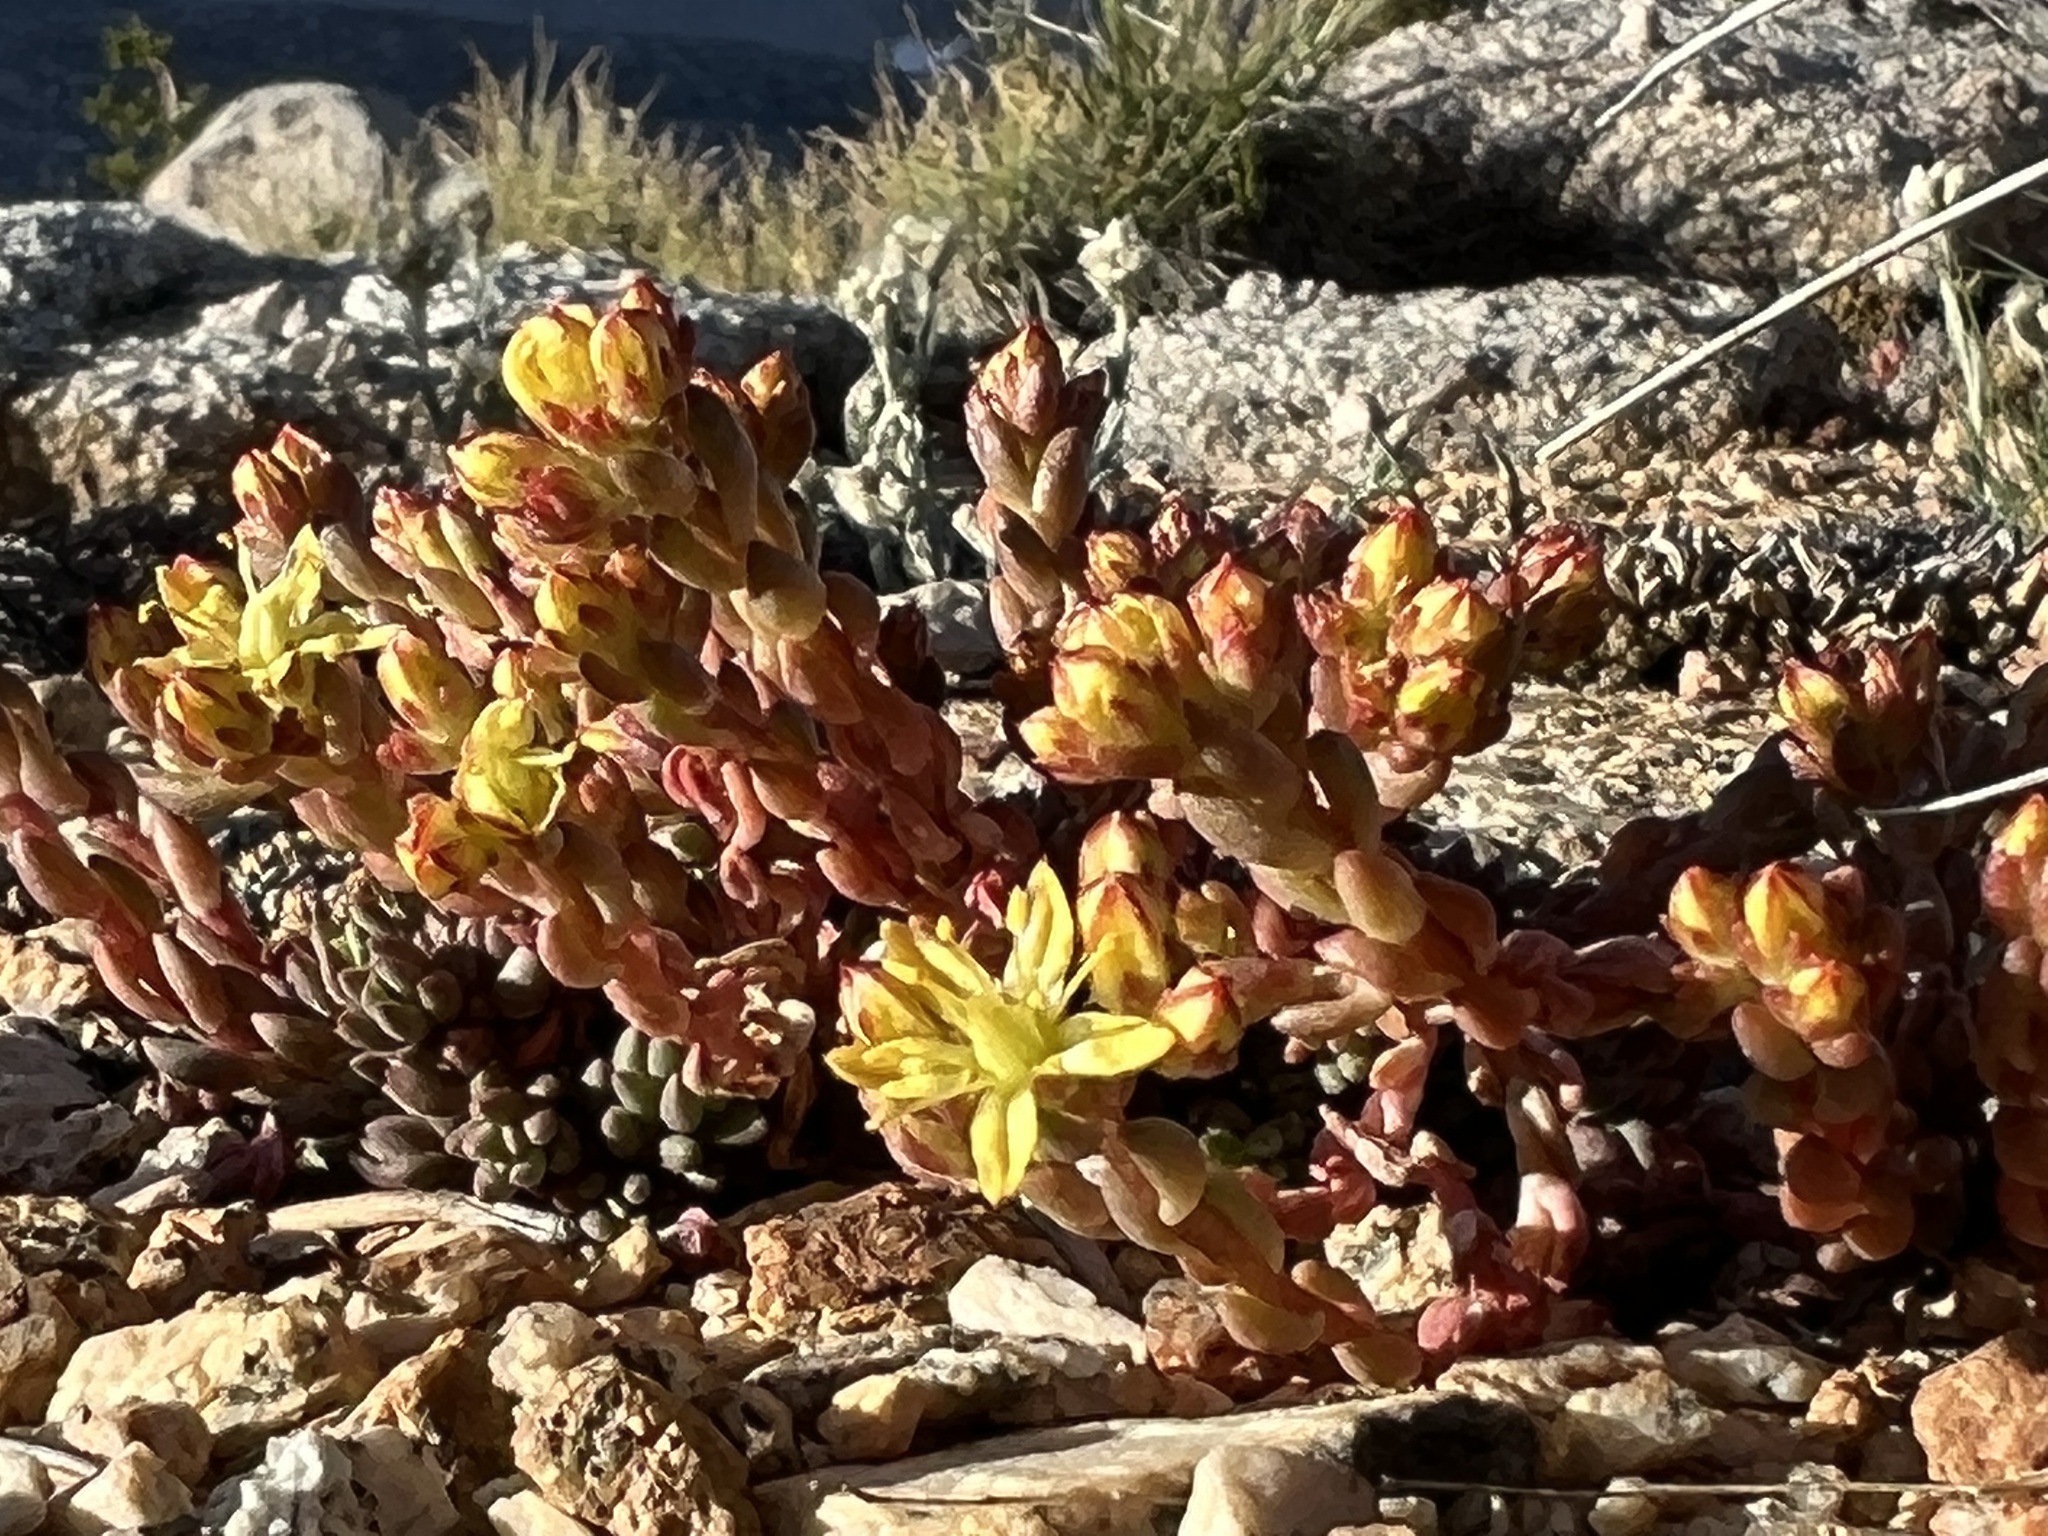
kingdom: Plantae
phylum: Tracheophyta
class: Magnoliopsida
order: Saxifragales
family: Crassulaceae
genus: Sedum
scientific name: Sedum lanceolatum
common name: Common stonecrop
